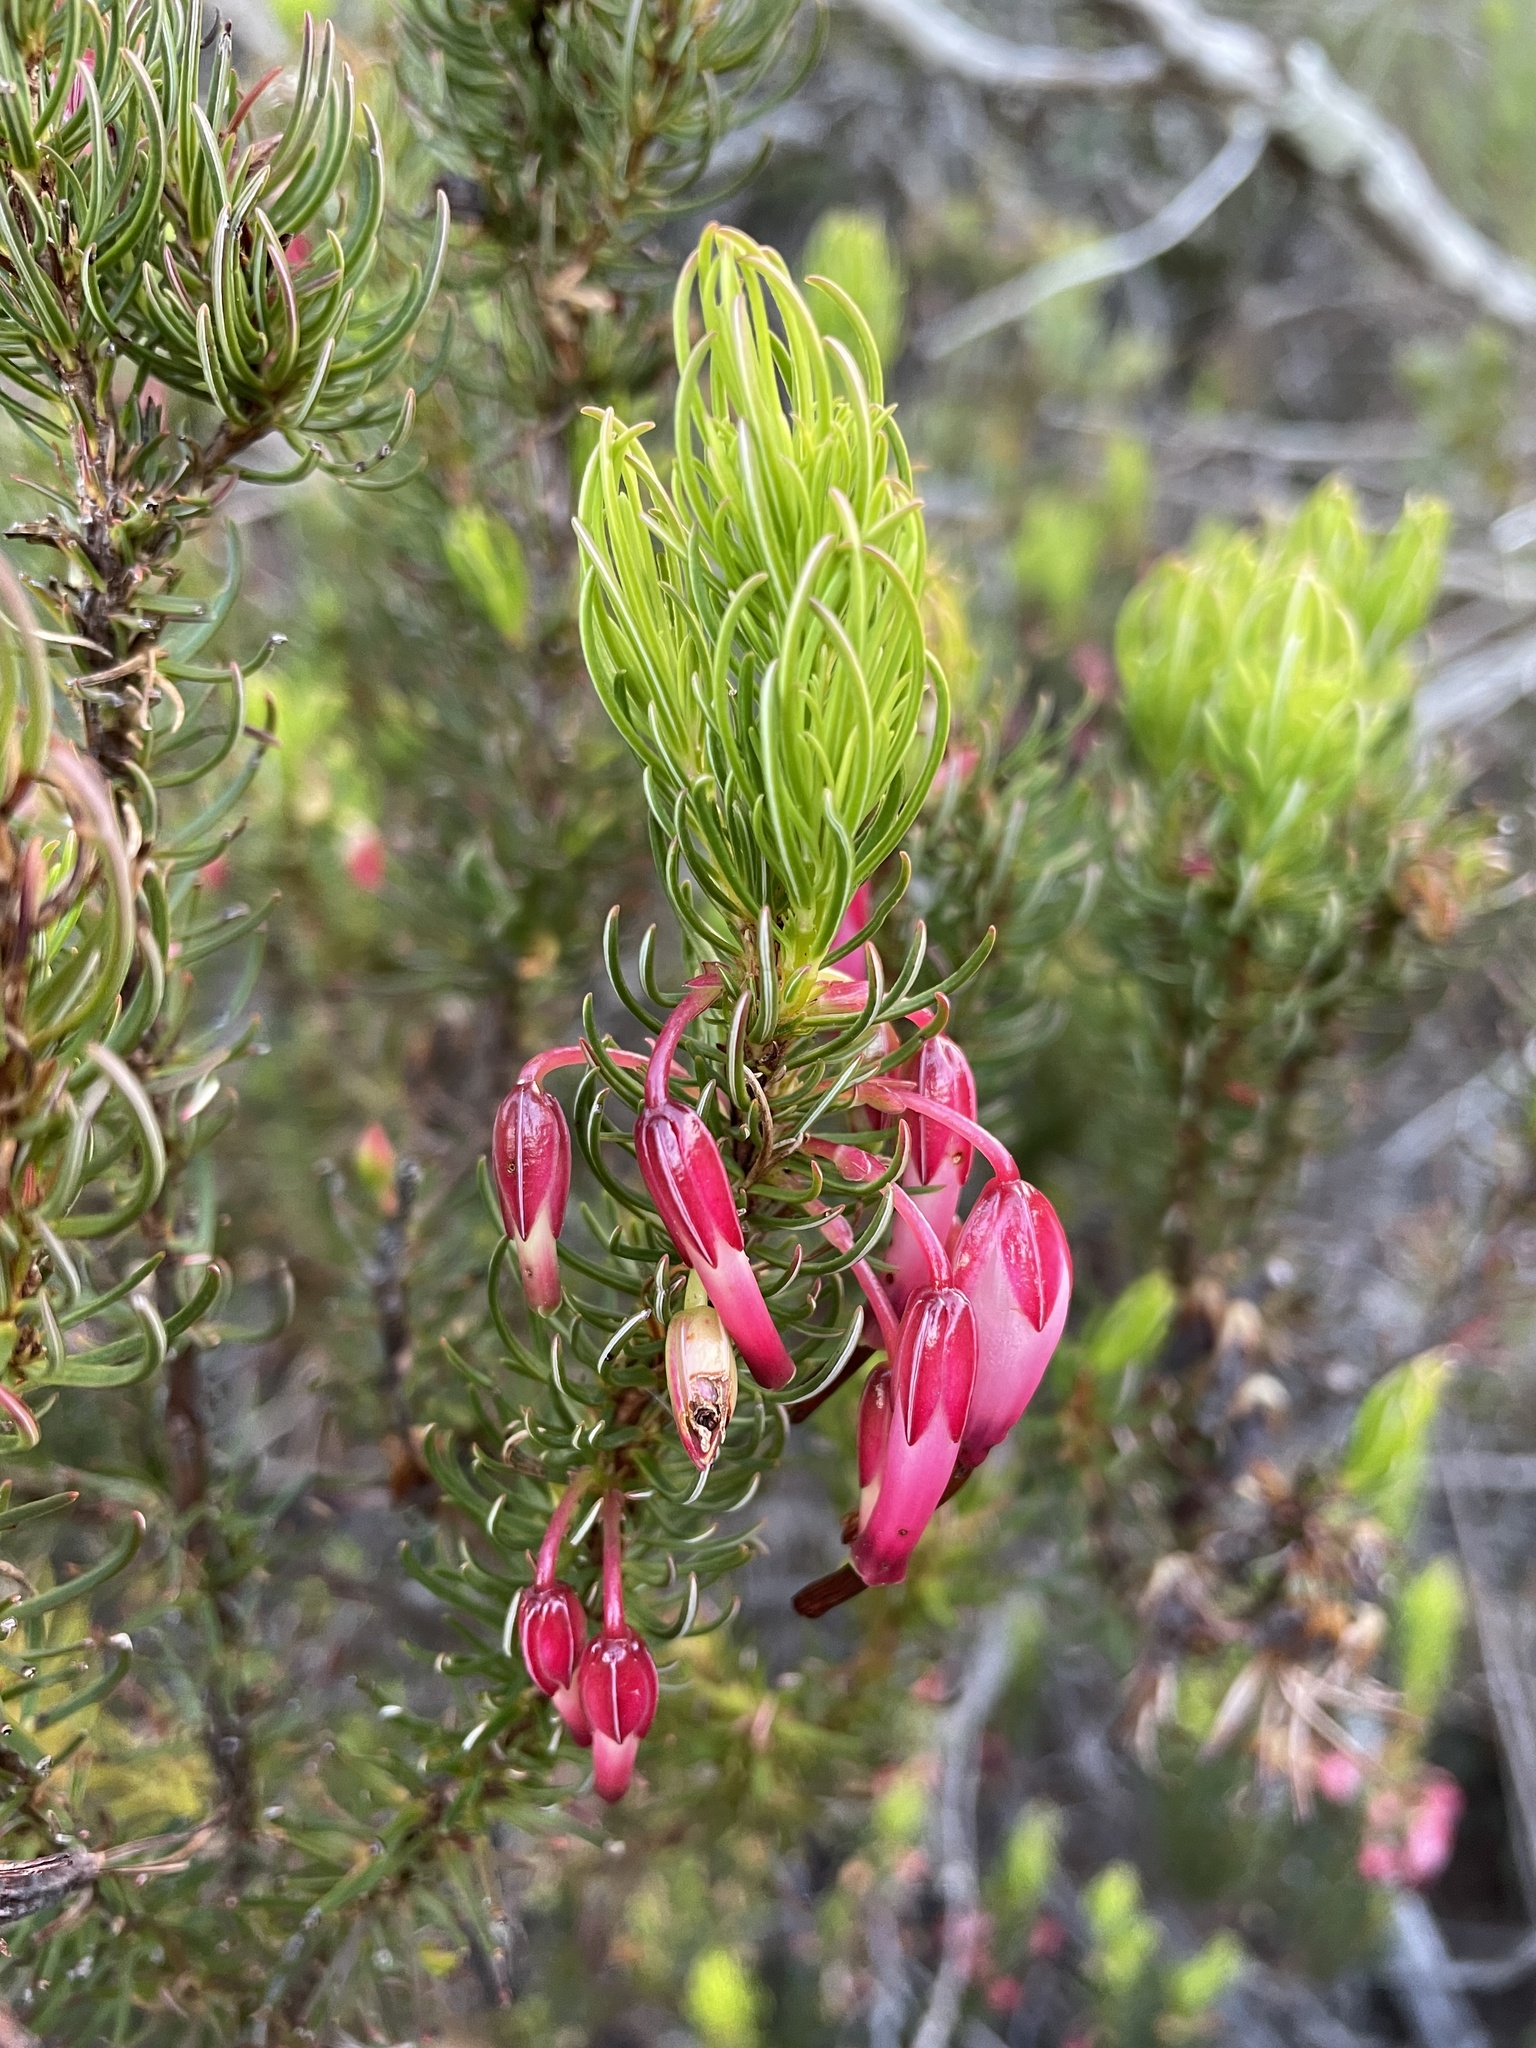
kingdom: Plantae
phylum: Tracheophyta
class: Magnoliopsida
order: Ericales
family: Ericaceae
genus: Erica
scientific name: Erica plukenetii
